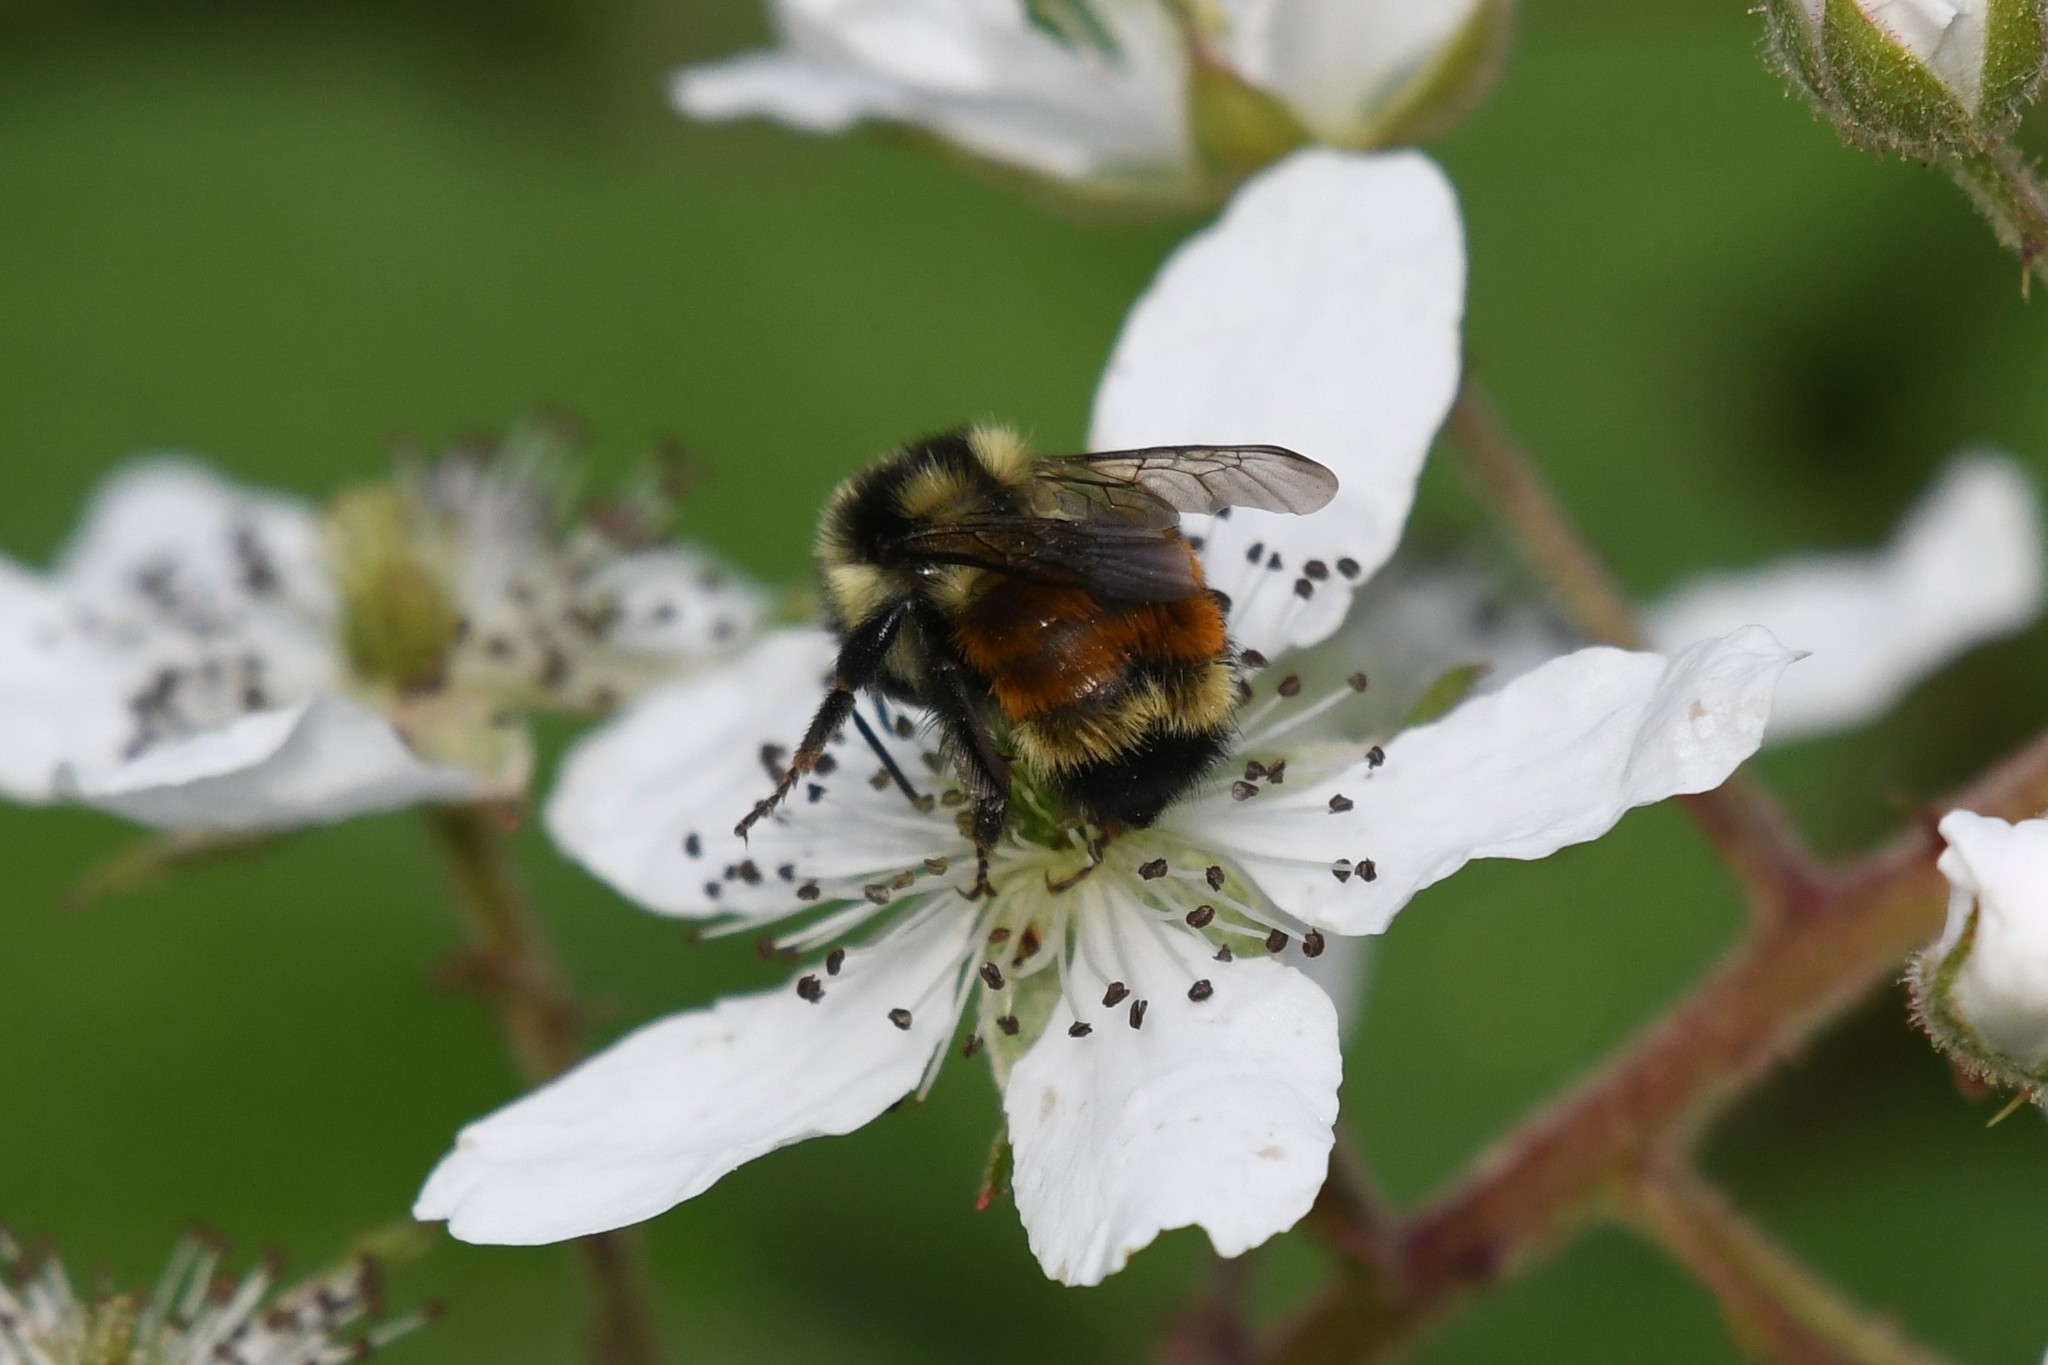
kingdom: Animalia
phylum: Arthropoda
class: Insecta
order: Hymenoptera
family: Apidae
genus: Bombus
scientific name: Bombus ternarius
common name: Tri-colored bumble bee
